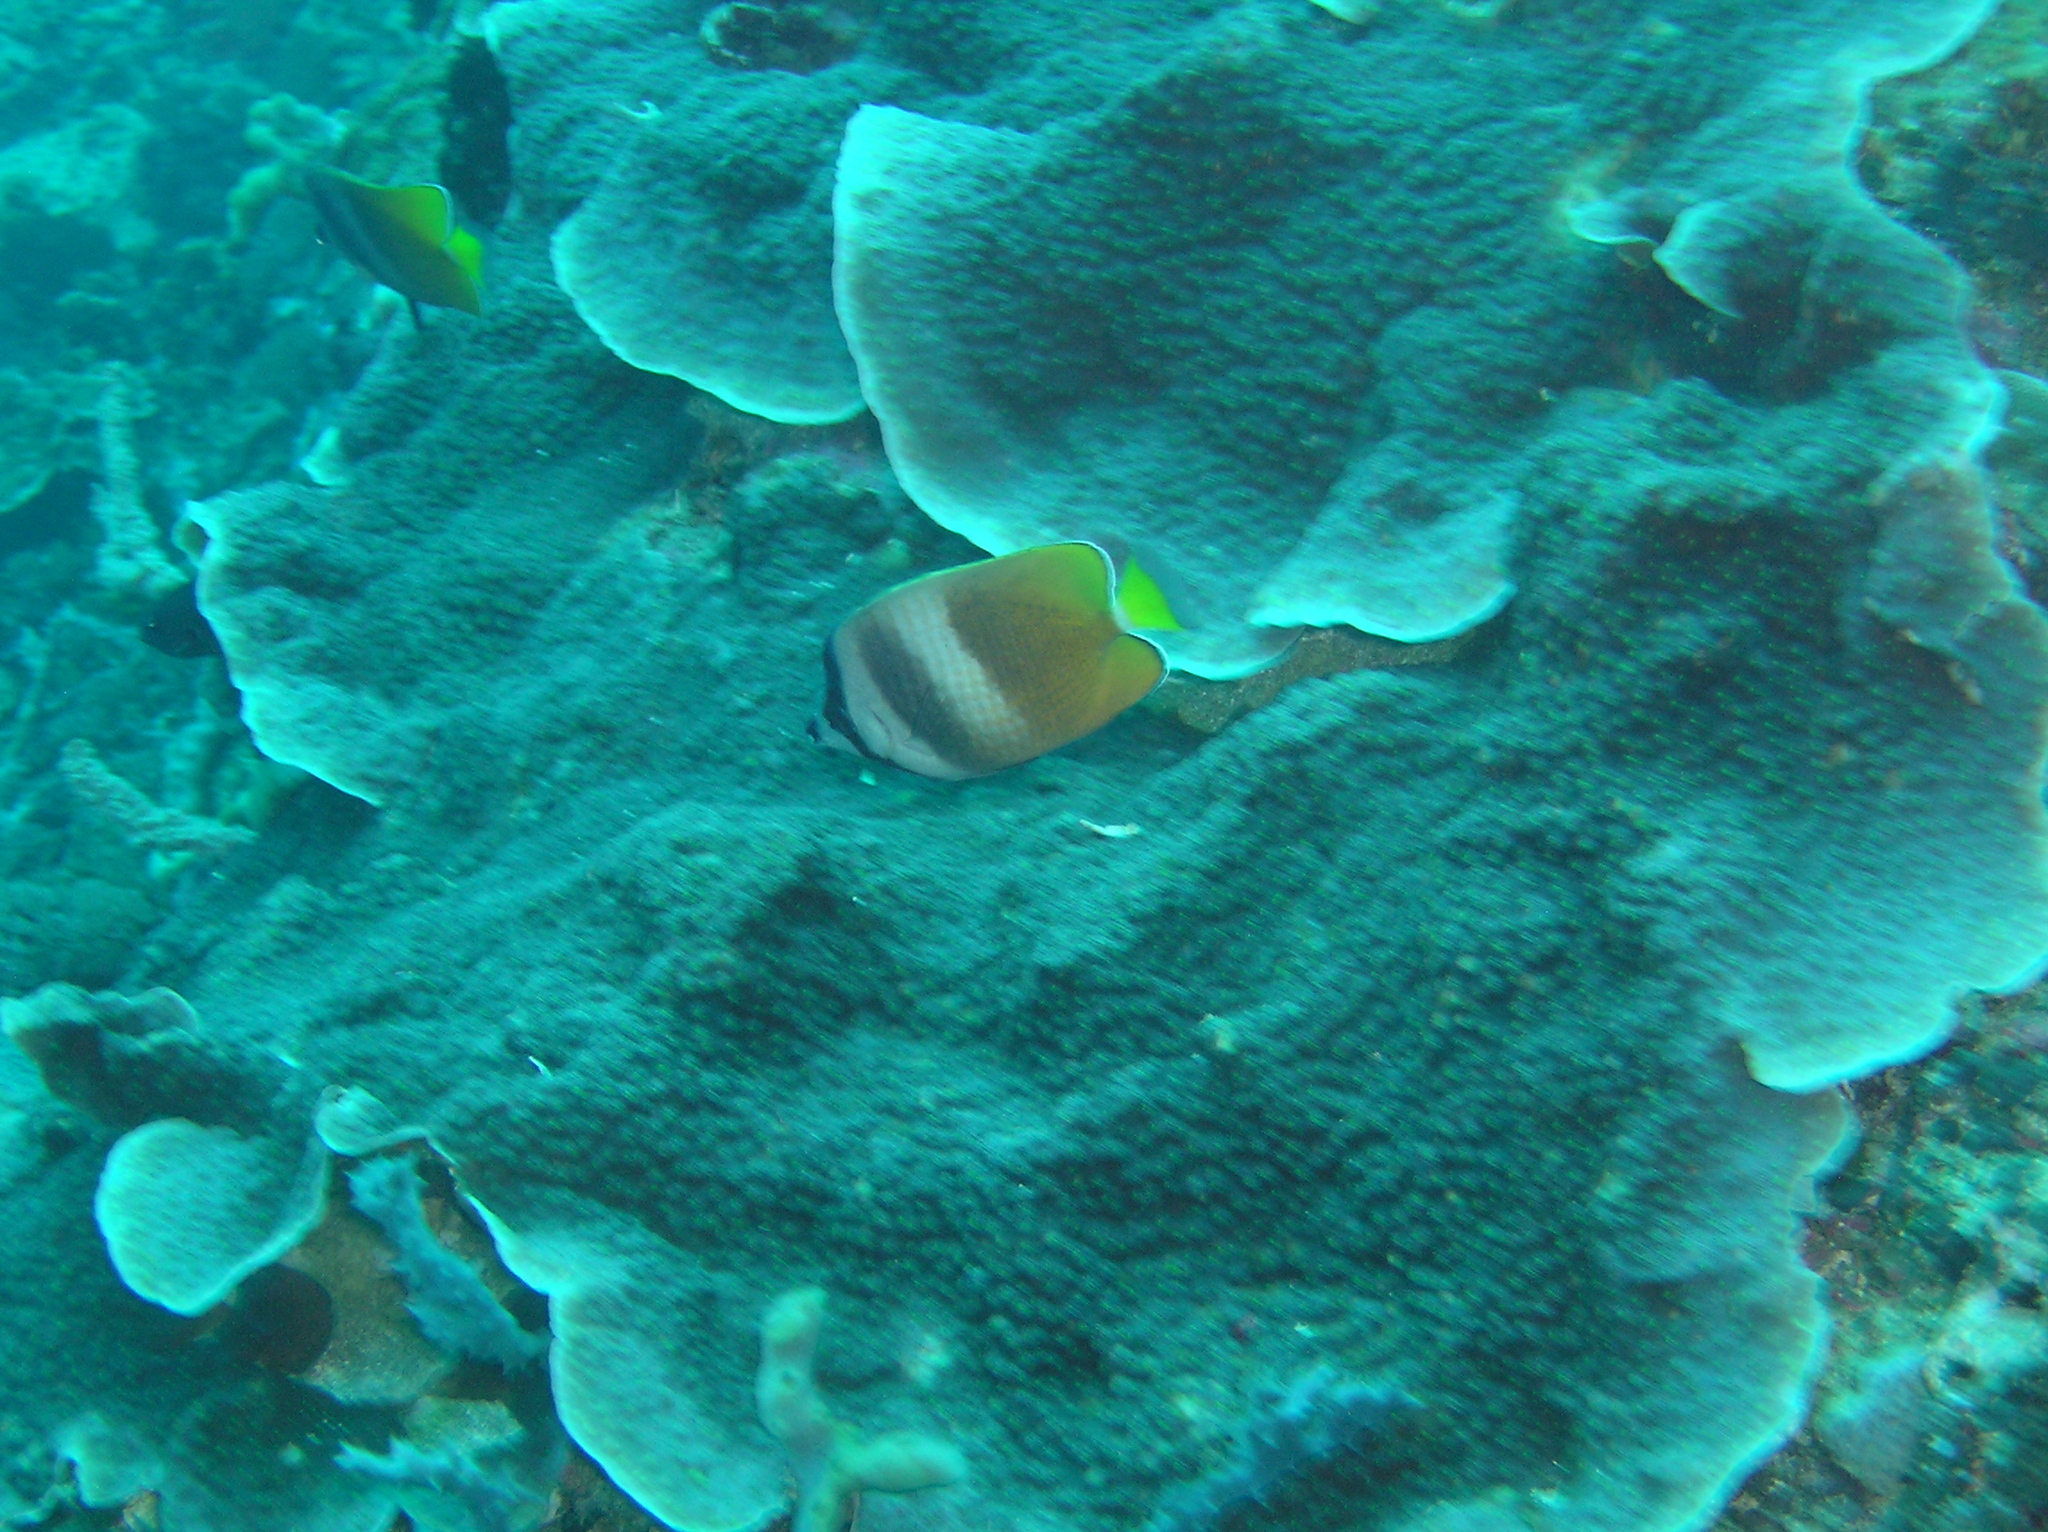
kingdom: Animalia
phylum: Chordata
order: Perciformes
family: Chaetodontidae
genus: Chaetodon
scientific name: Chaetodon kleinii
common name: Klein's butterflyfish
